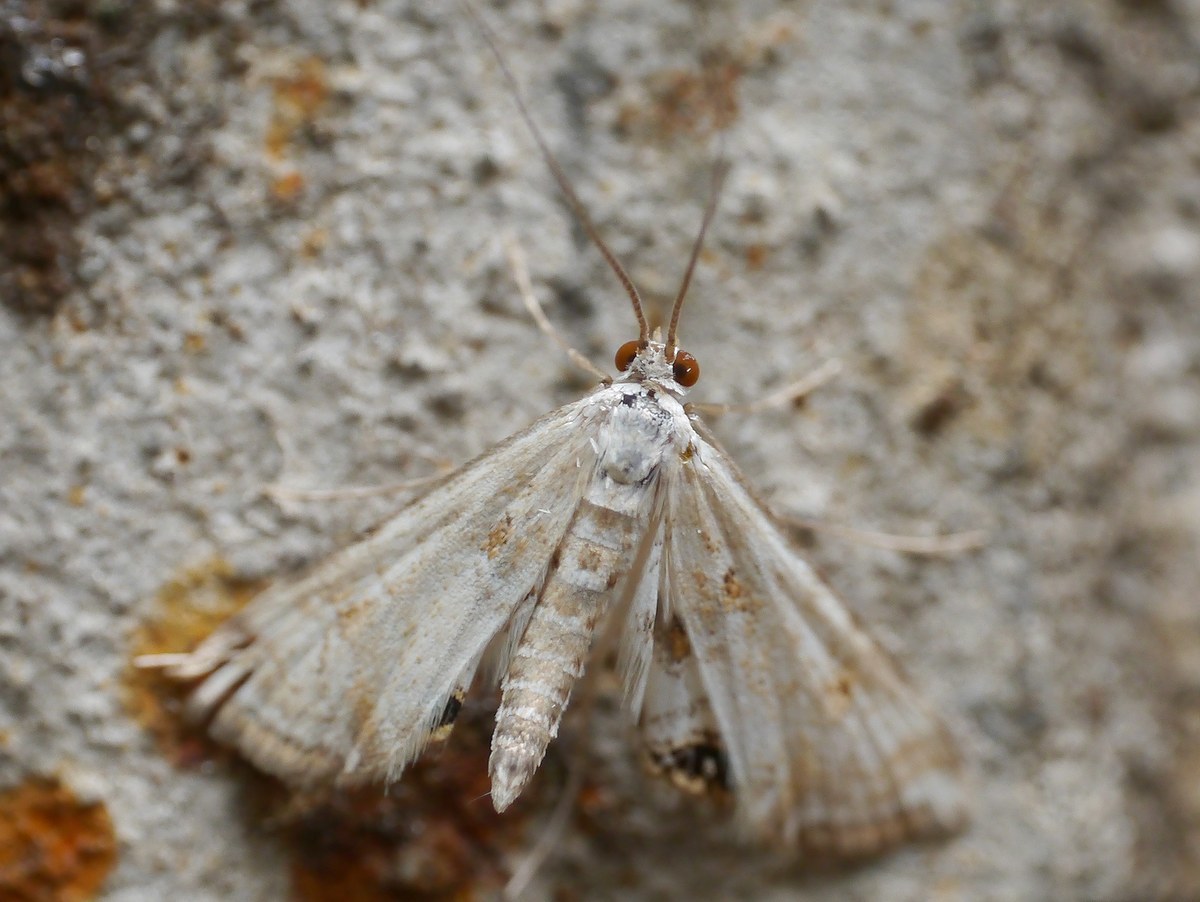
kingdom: Animalia
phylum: Arthropoda
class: Insecta
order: Lepidoptera
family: Crambidae
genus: Cataclysta
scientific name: Cataclysta lemnata
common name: Small china-mark
